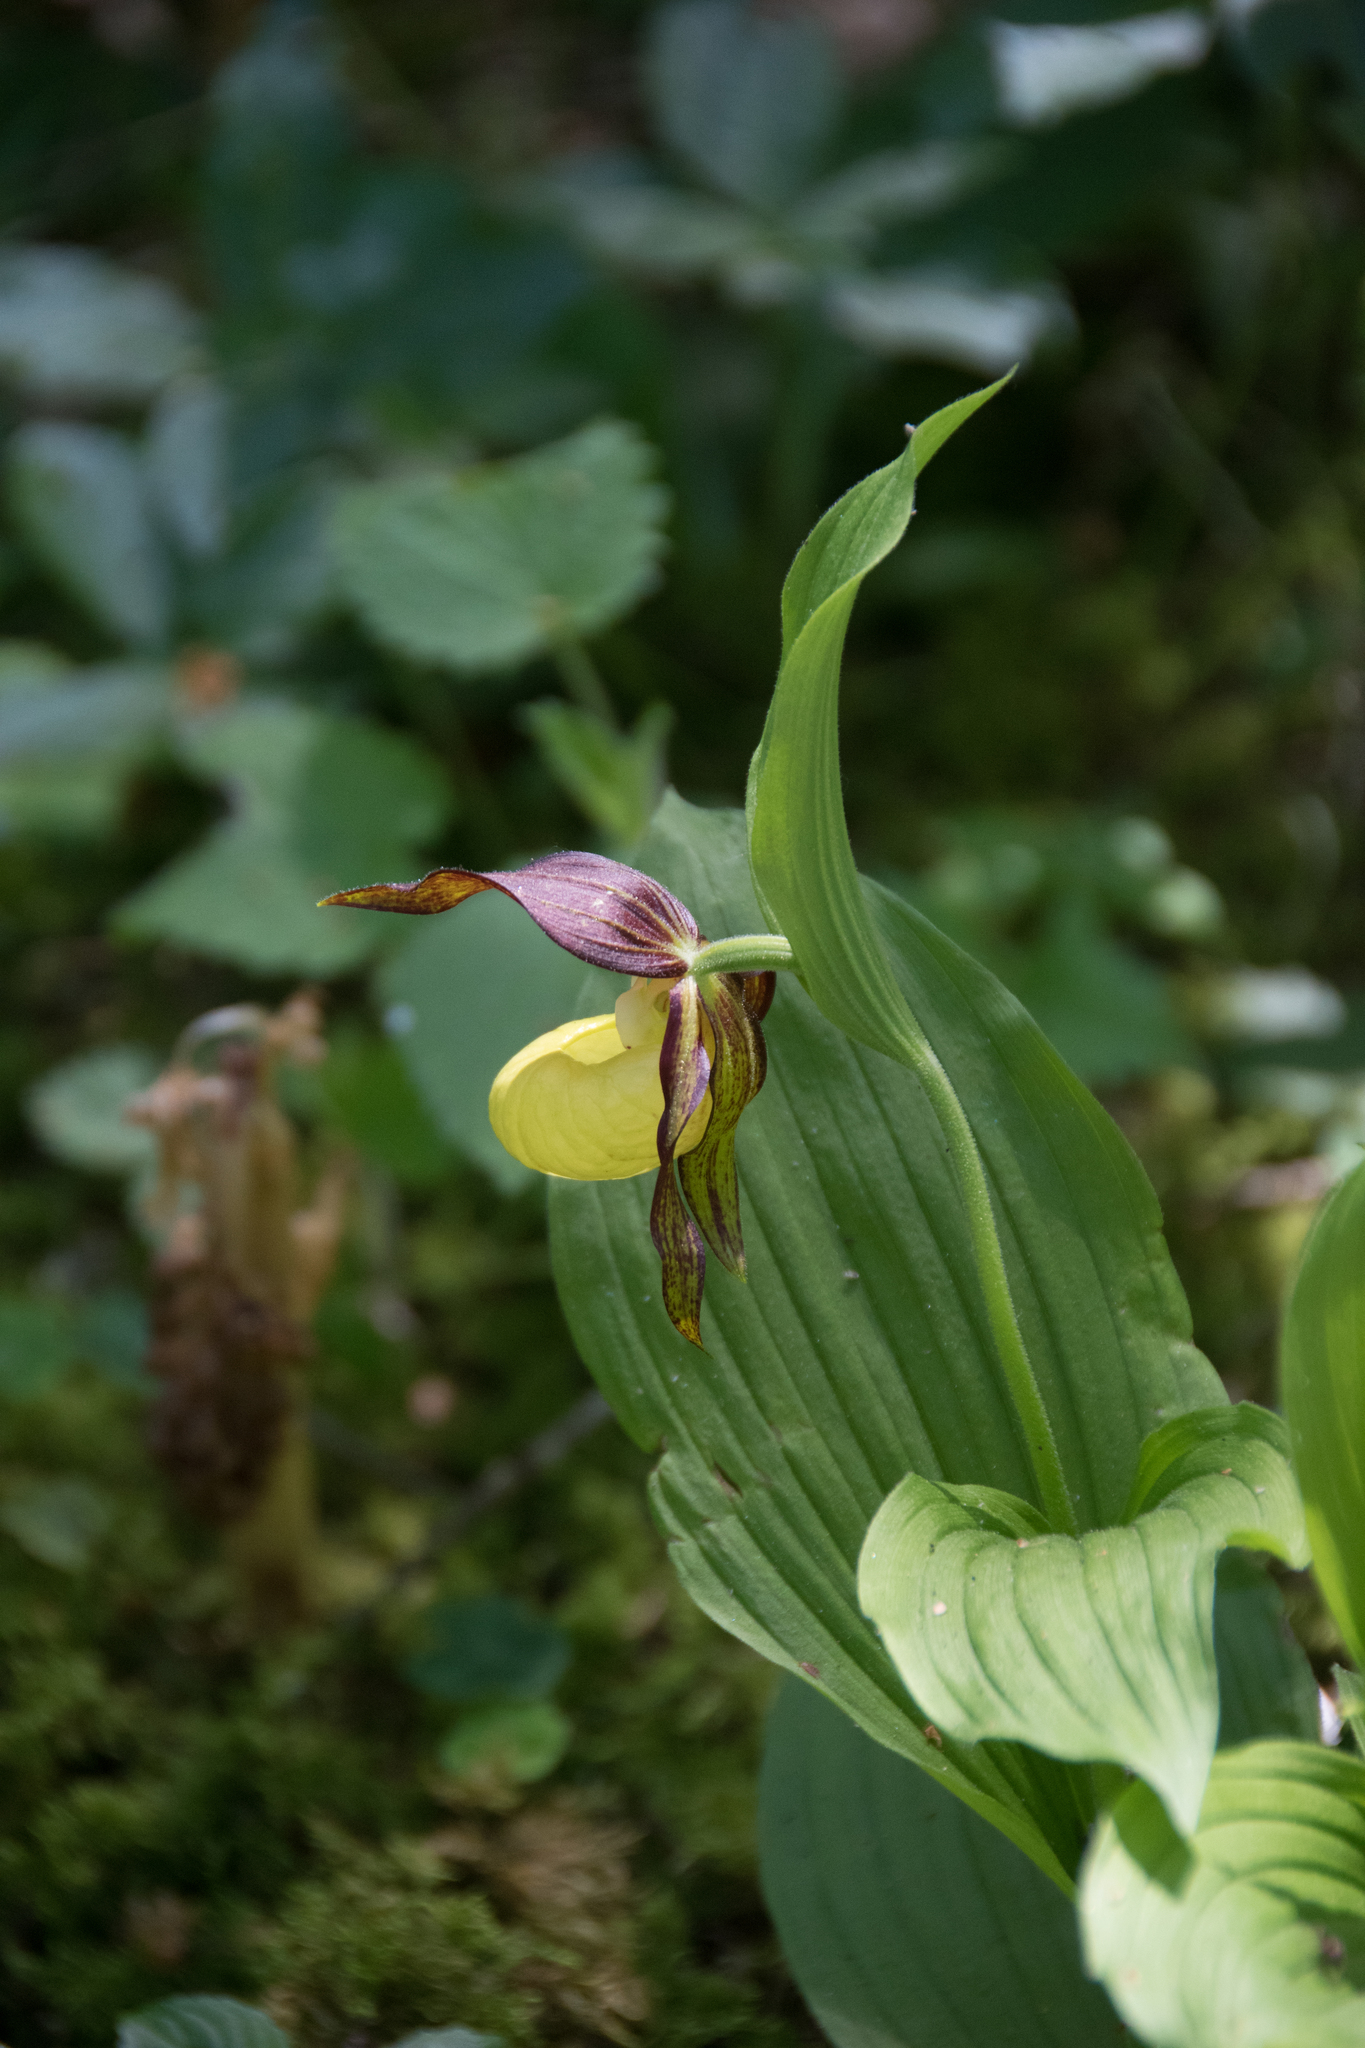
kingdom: Plantae
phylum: Tracheophyta
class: Liliopsida
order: Asparagales
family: Orchidaceae
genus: Cypripedium
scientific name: Cypripedium calceolus
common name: Lady's-slipper
